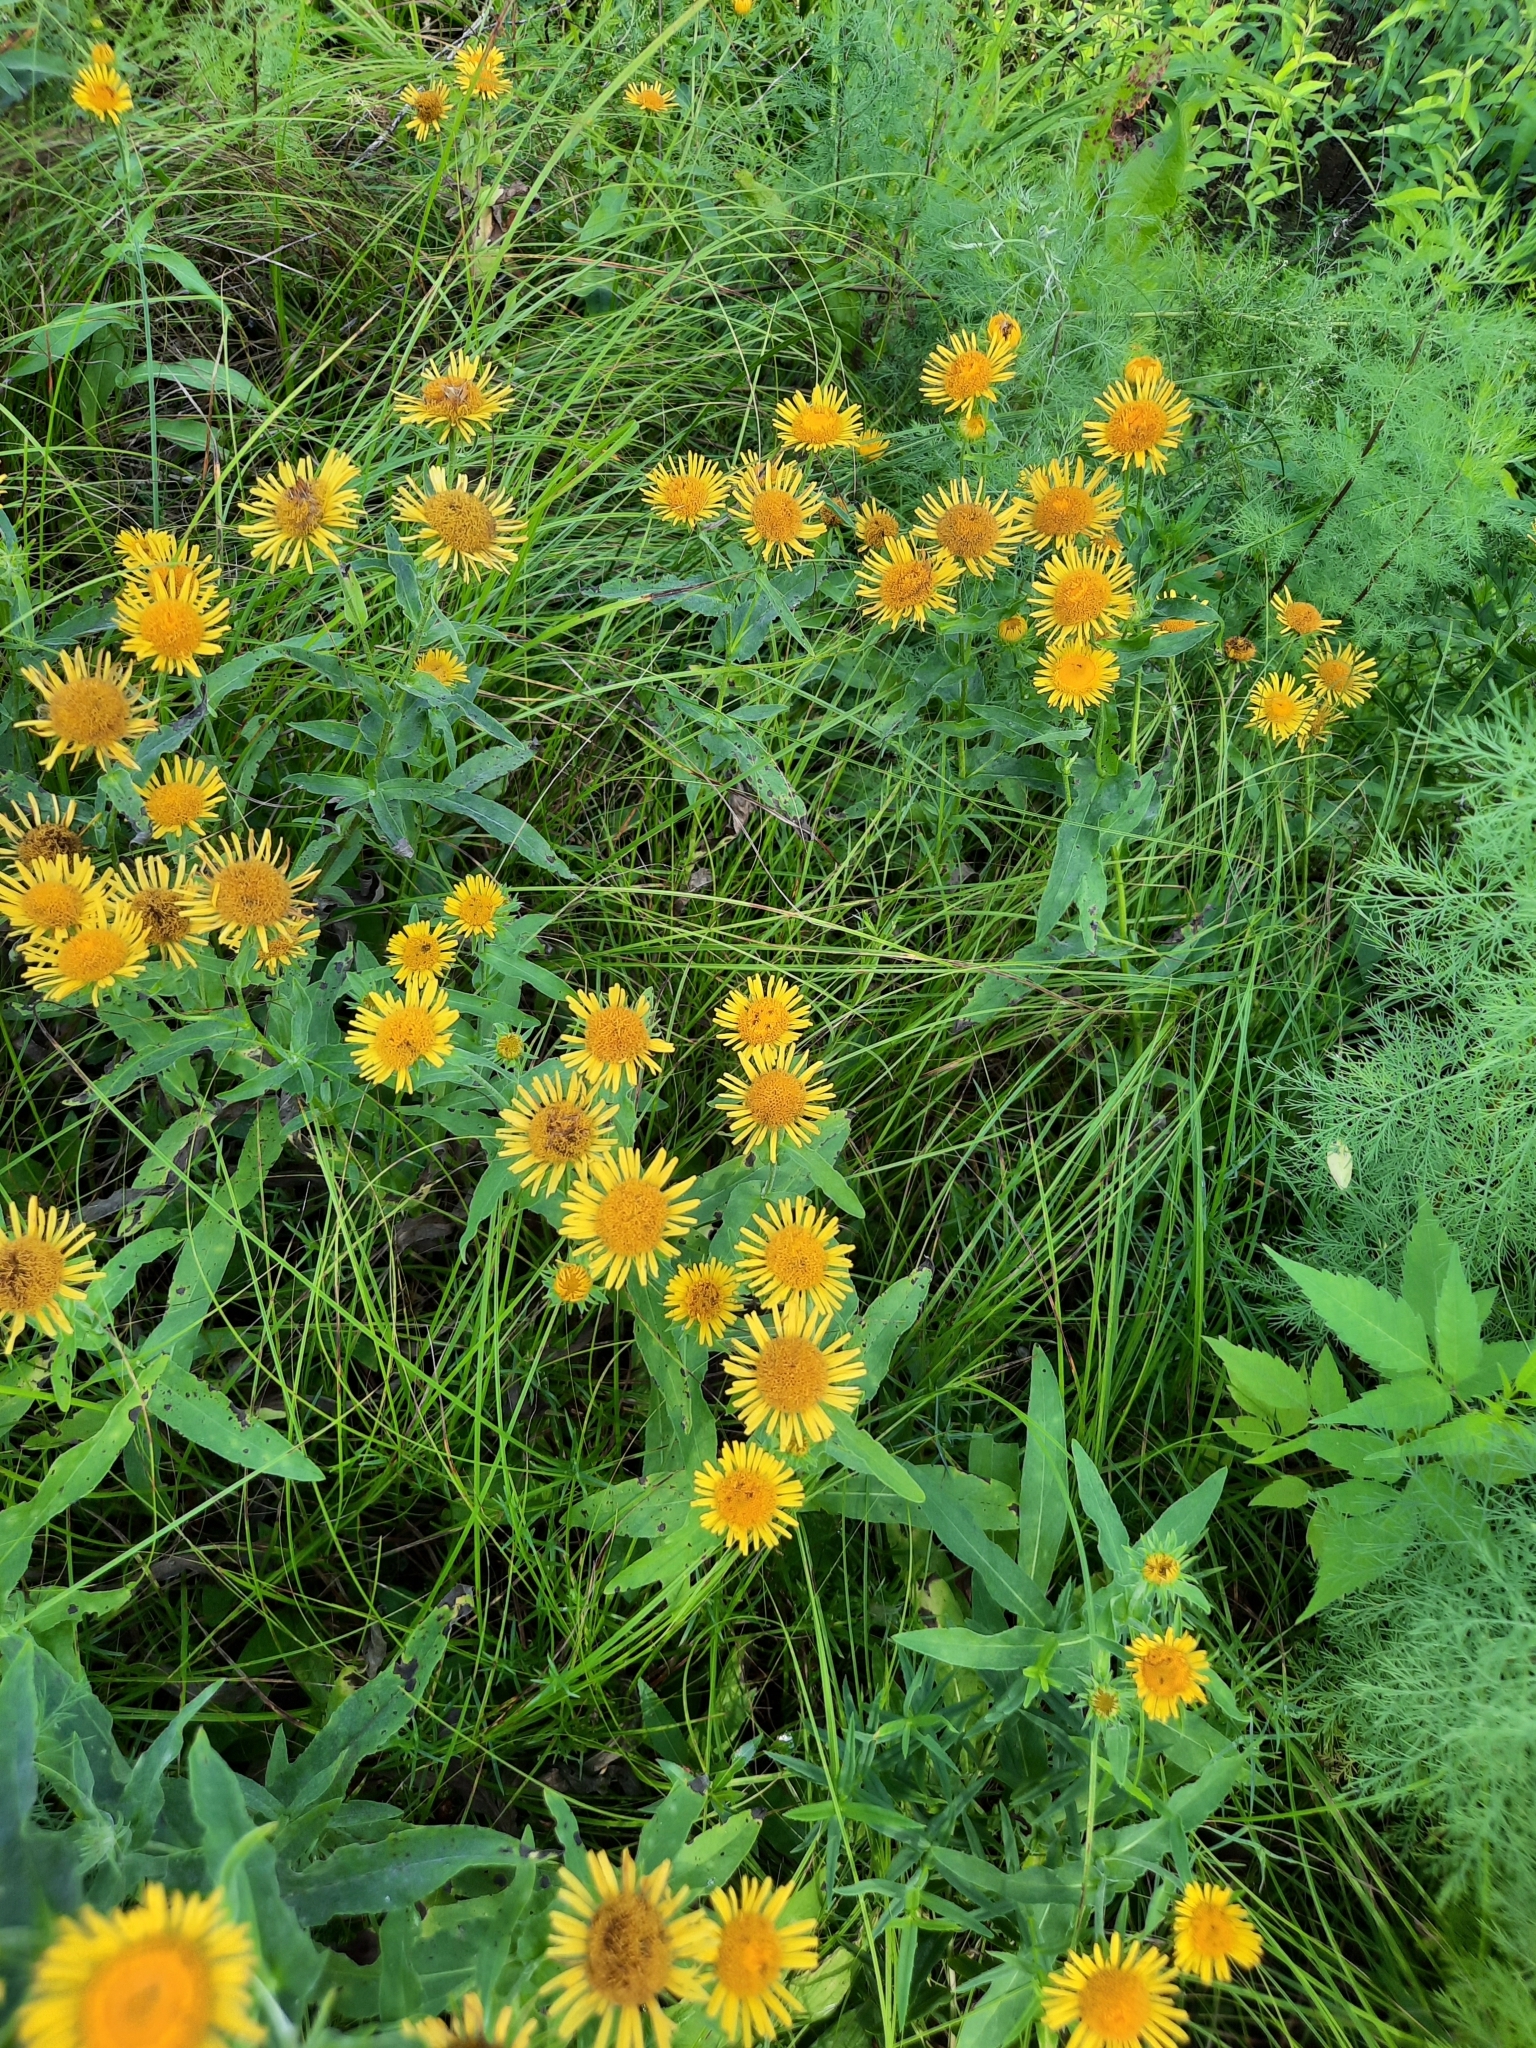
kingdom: Plantae
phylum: Tracheophyta
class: Magnoliopsida
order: Asterales
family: Asteraceae
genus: Pentanema
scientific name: Pentanema britannicum
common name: British elecampane
